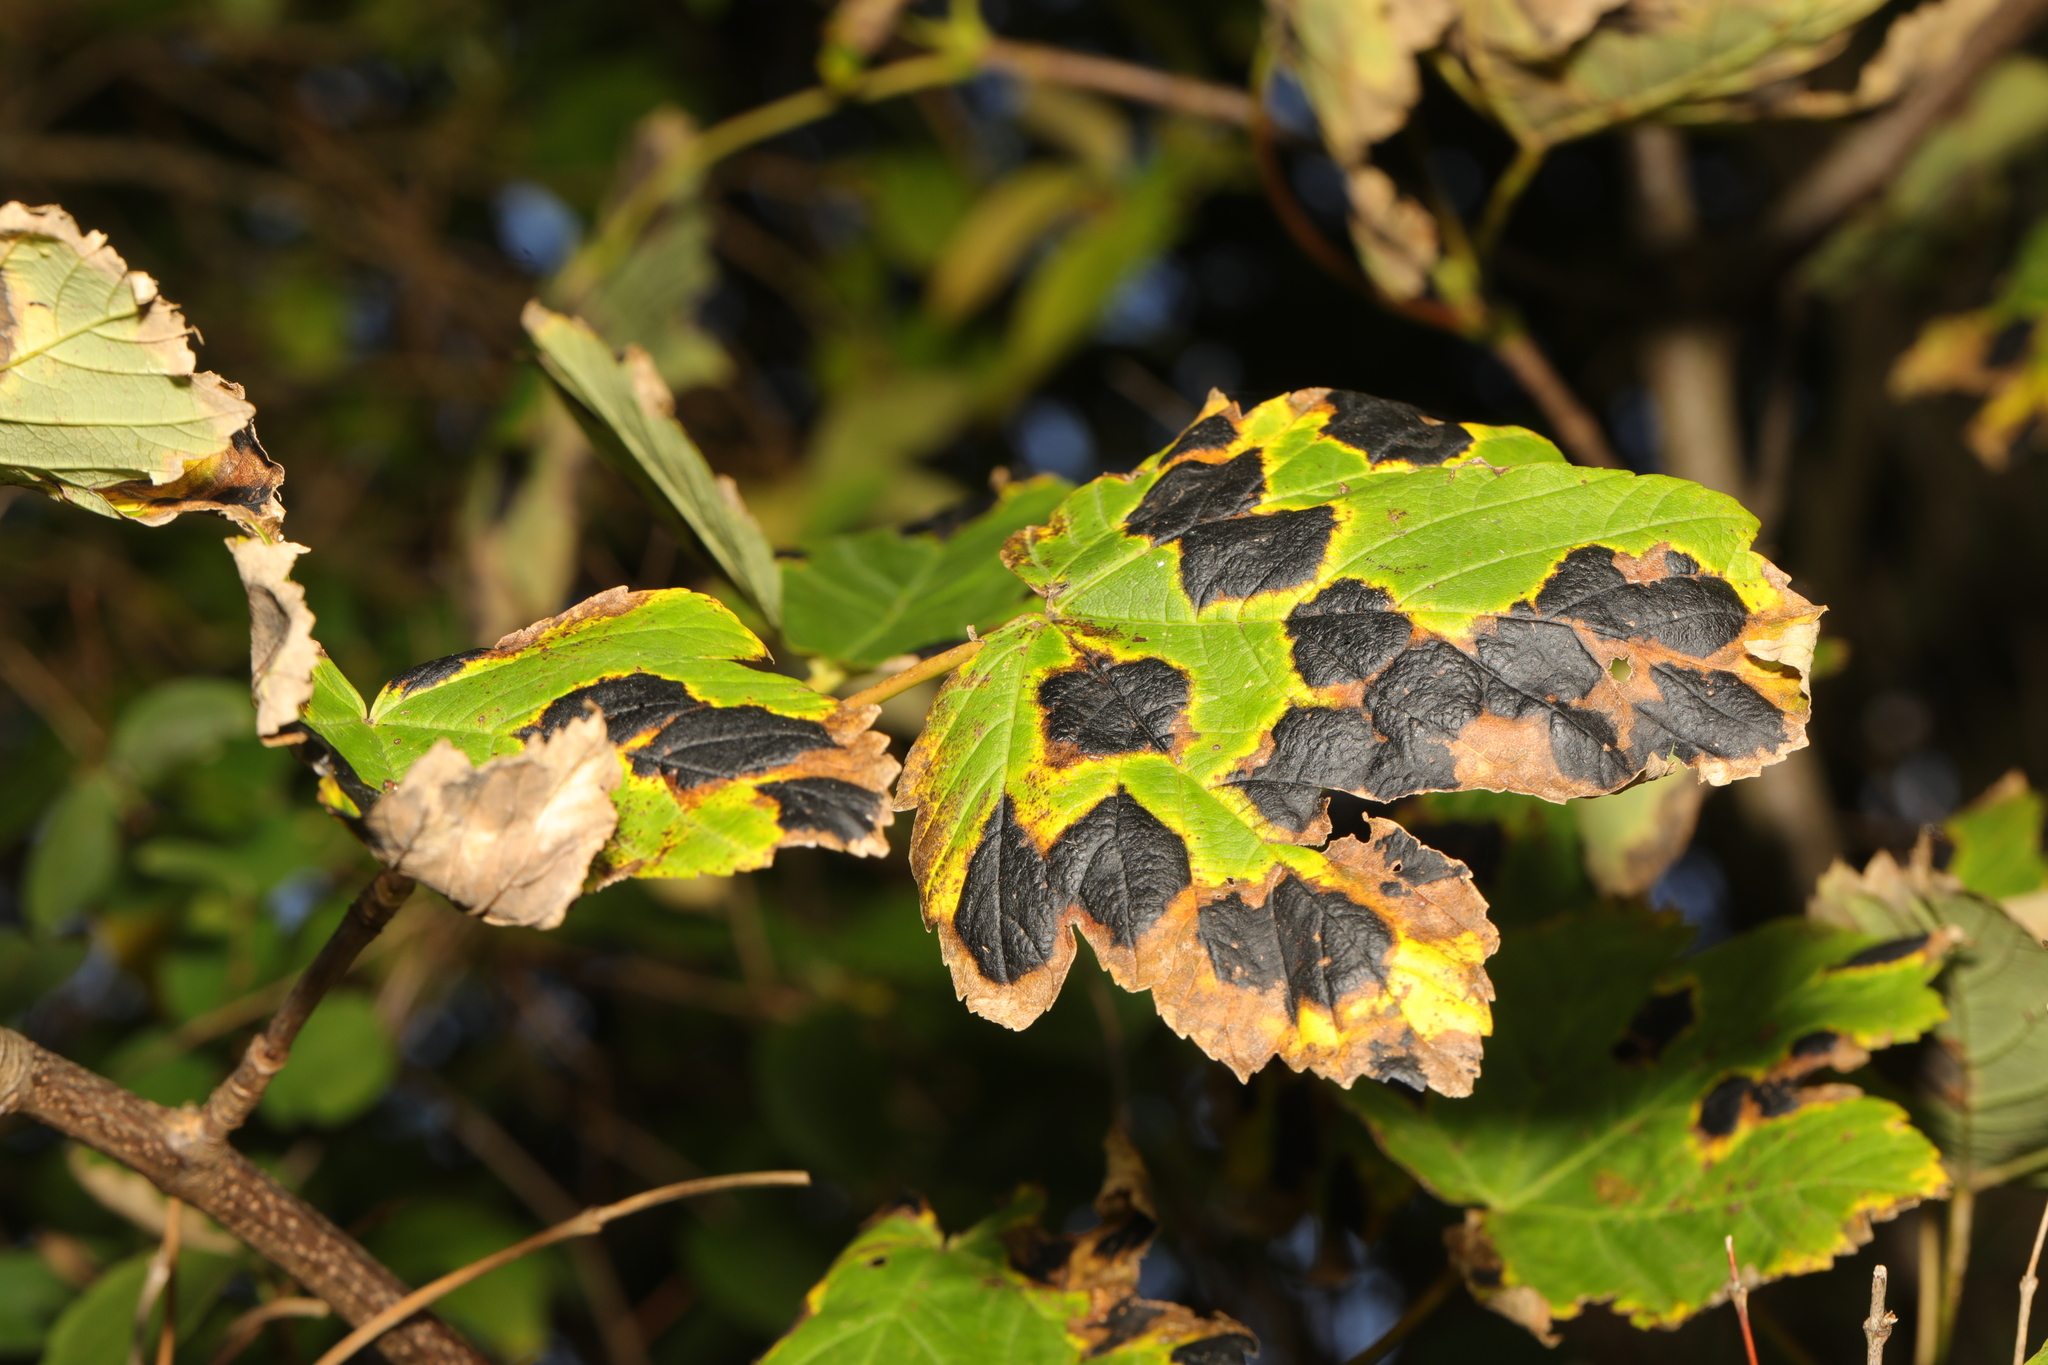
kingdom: Fungi
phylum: Ascomycota
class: Leotiomycetes
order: Rhytismatales
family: Rhytismataceae
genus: Rhytisma
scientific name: Rhytisma acerinum
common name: European tar spot
